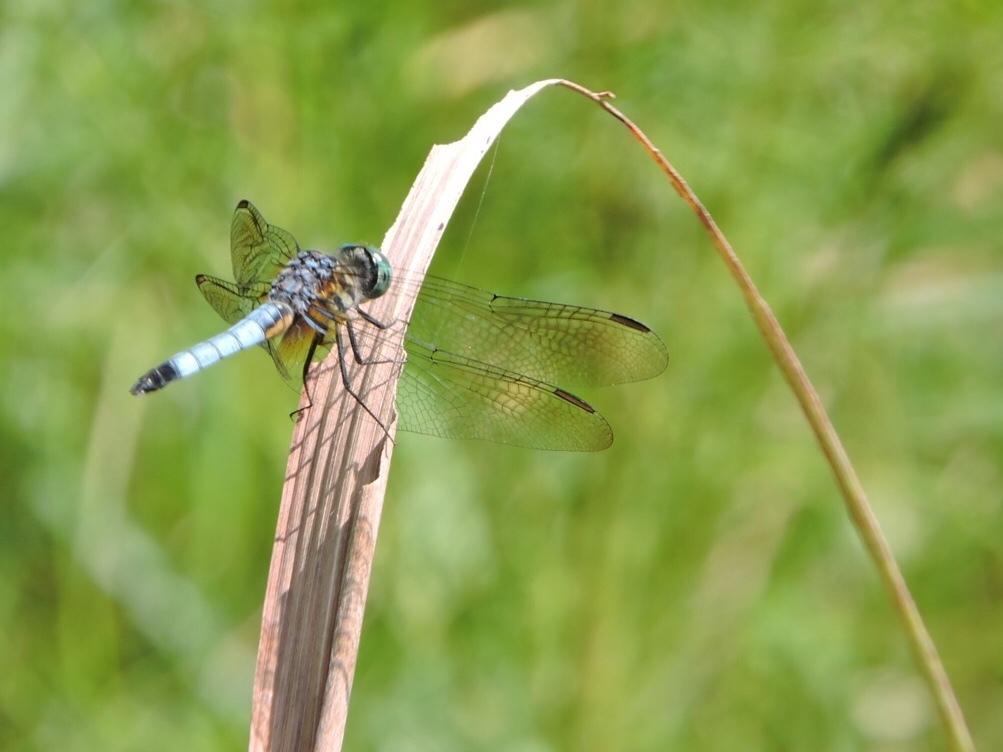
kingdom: Animalia
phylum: Arthropoda
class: Insecta
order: Odonata
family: Libellulidae
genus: Pachydiplax
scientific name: Pachydiplax longipennis
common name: Blue dasher
